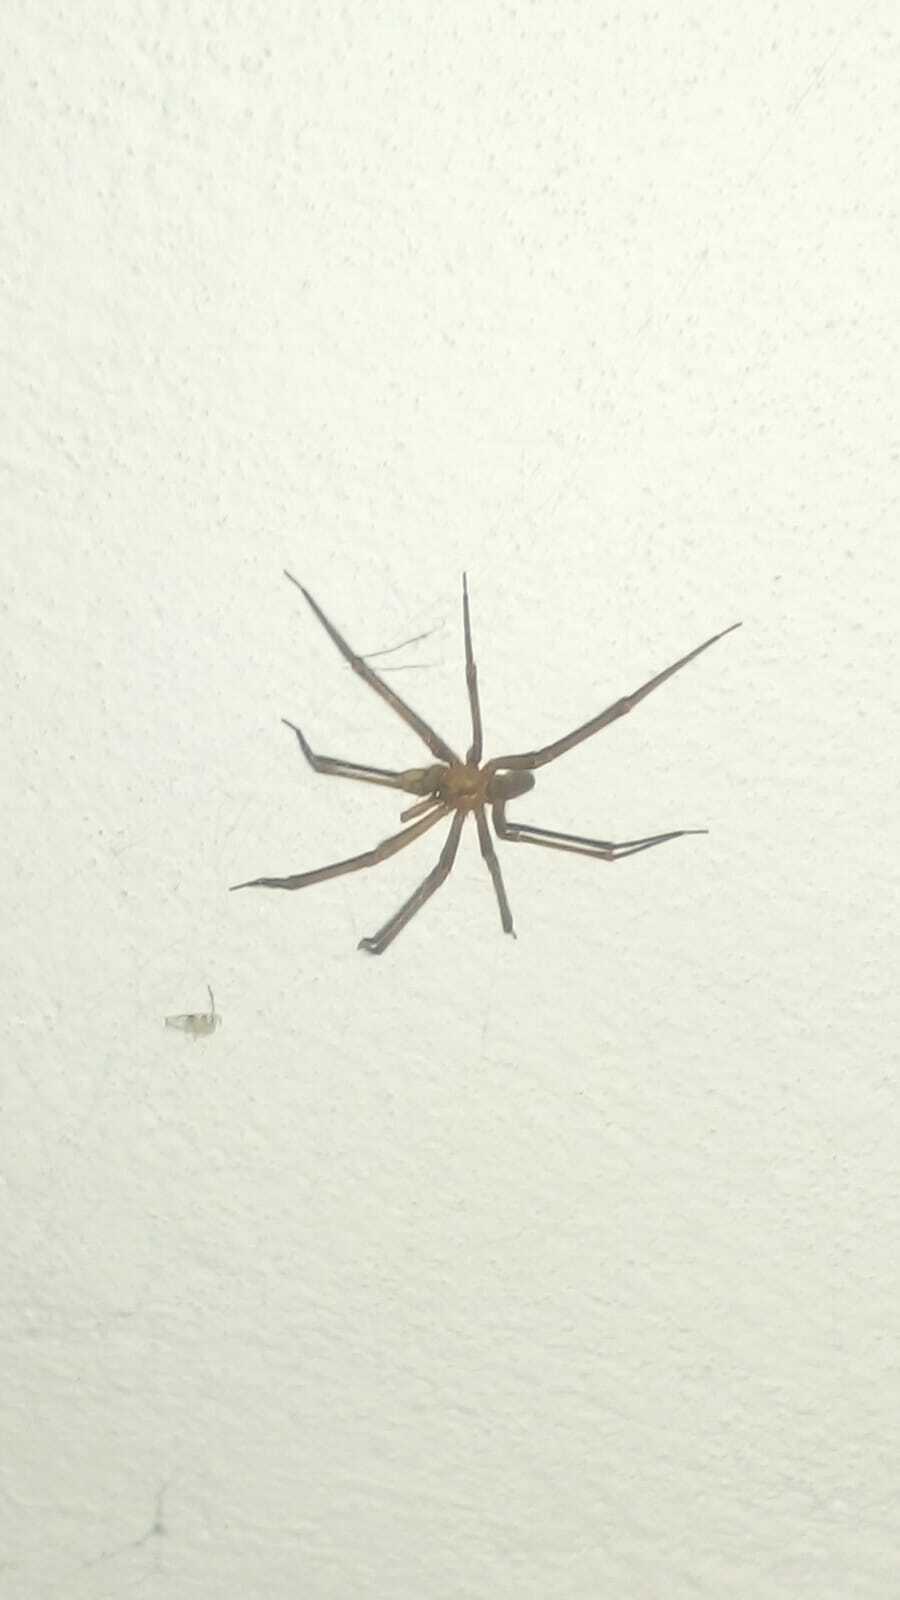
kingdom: Animalia
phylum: Arthropoda
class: Arachnida
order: Araneae
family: Sicariidae
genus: Loxosceles
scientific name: Loxosceles laeta
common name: Chilean recluse spider
